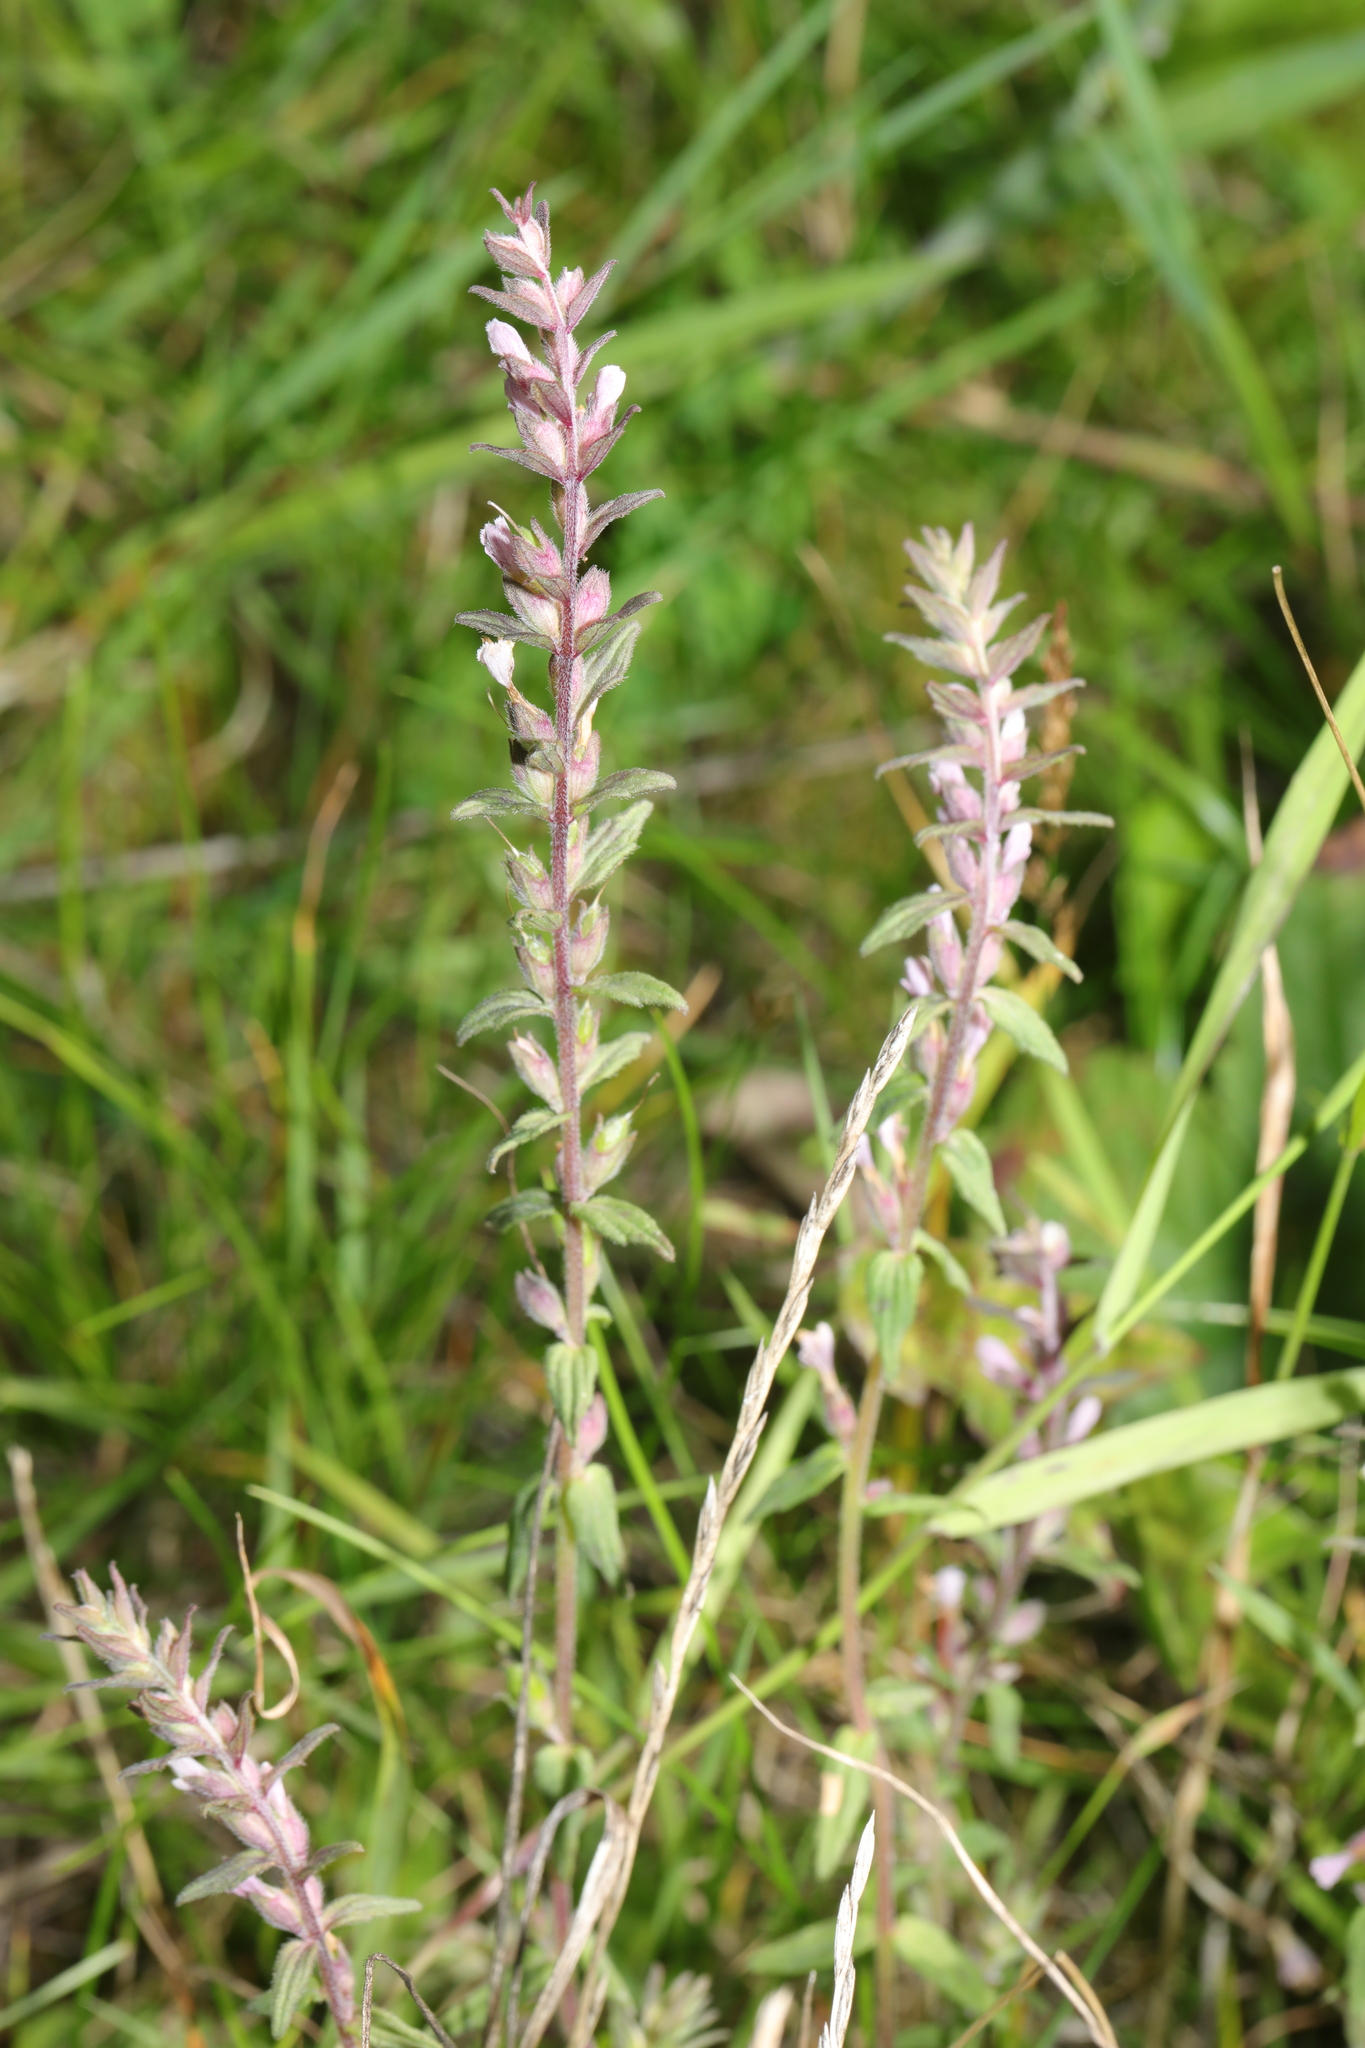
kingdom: Plantae
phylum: Tracheophyta
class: Magnoliopsida
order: Lamiales
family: Orobanchaceae
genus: Odontites
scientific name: Odontites vernus
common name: Red bartsia
